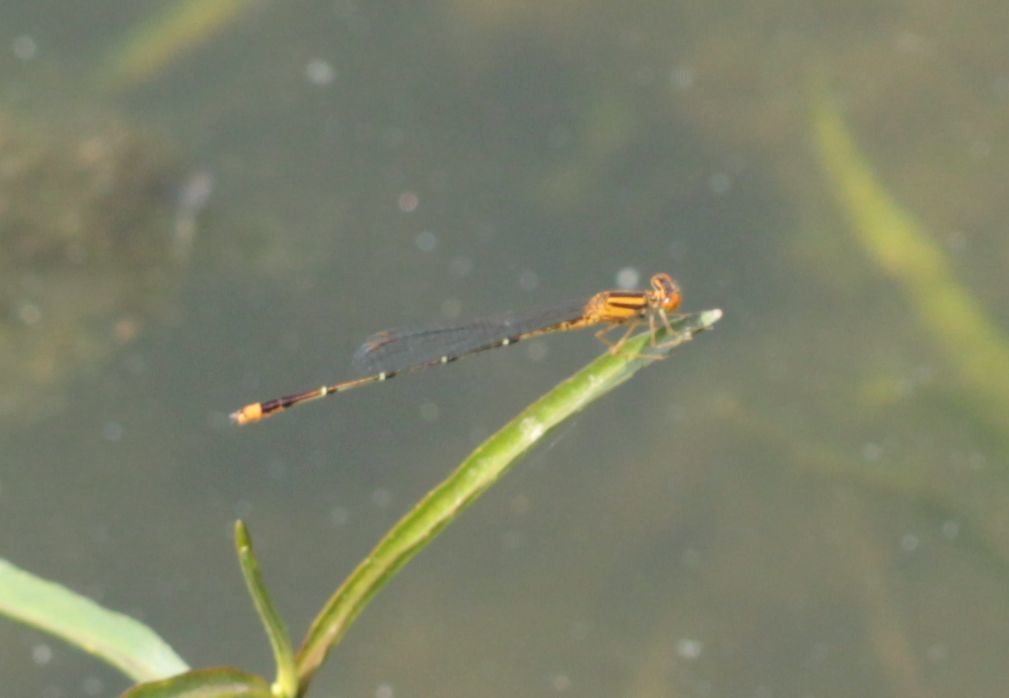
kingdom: Animalia
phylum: Arthropoda
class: Insecta
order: Odonata
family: Coenagrionidae
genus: Enallagma
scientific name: Enallagma signatum
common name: Orange bluet
